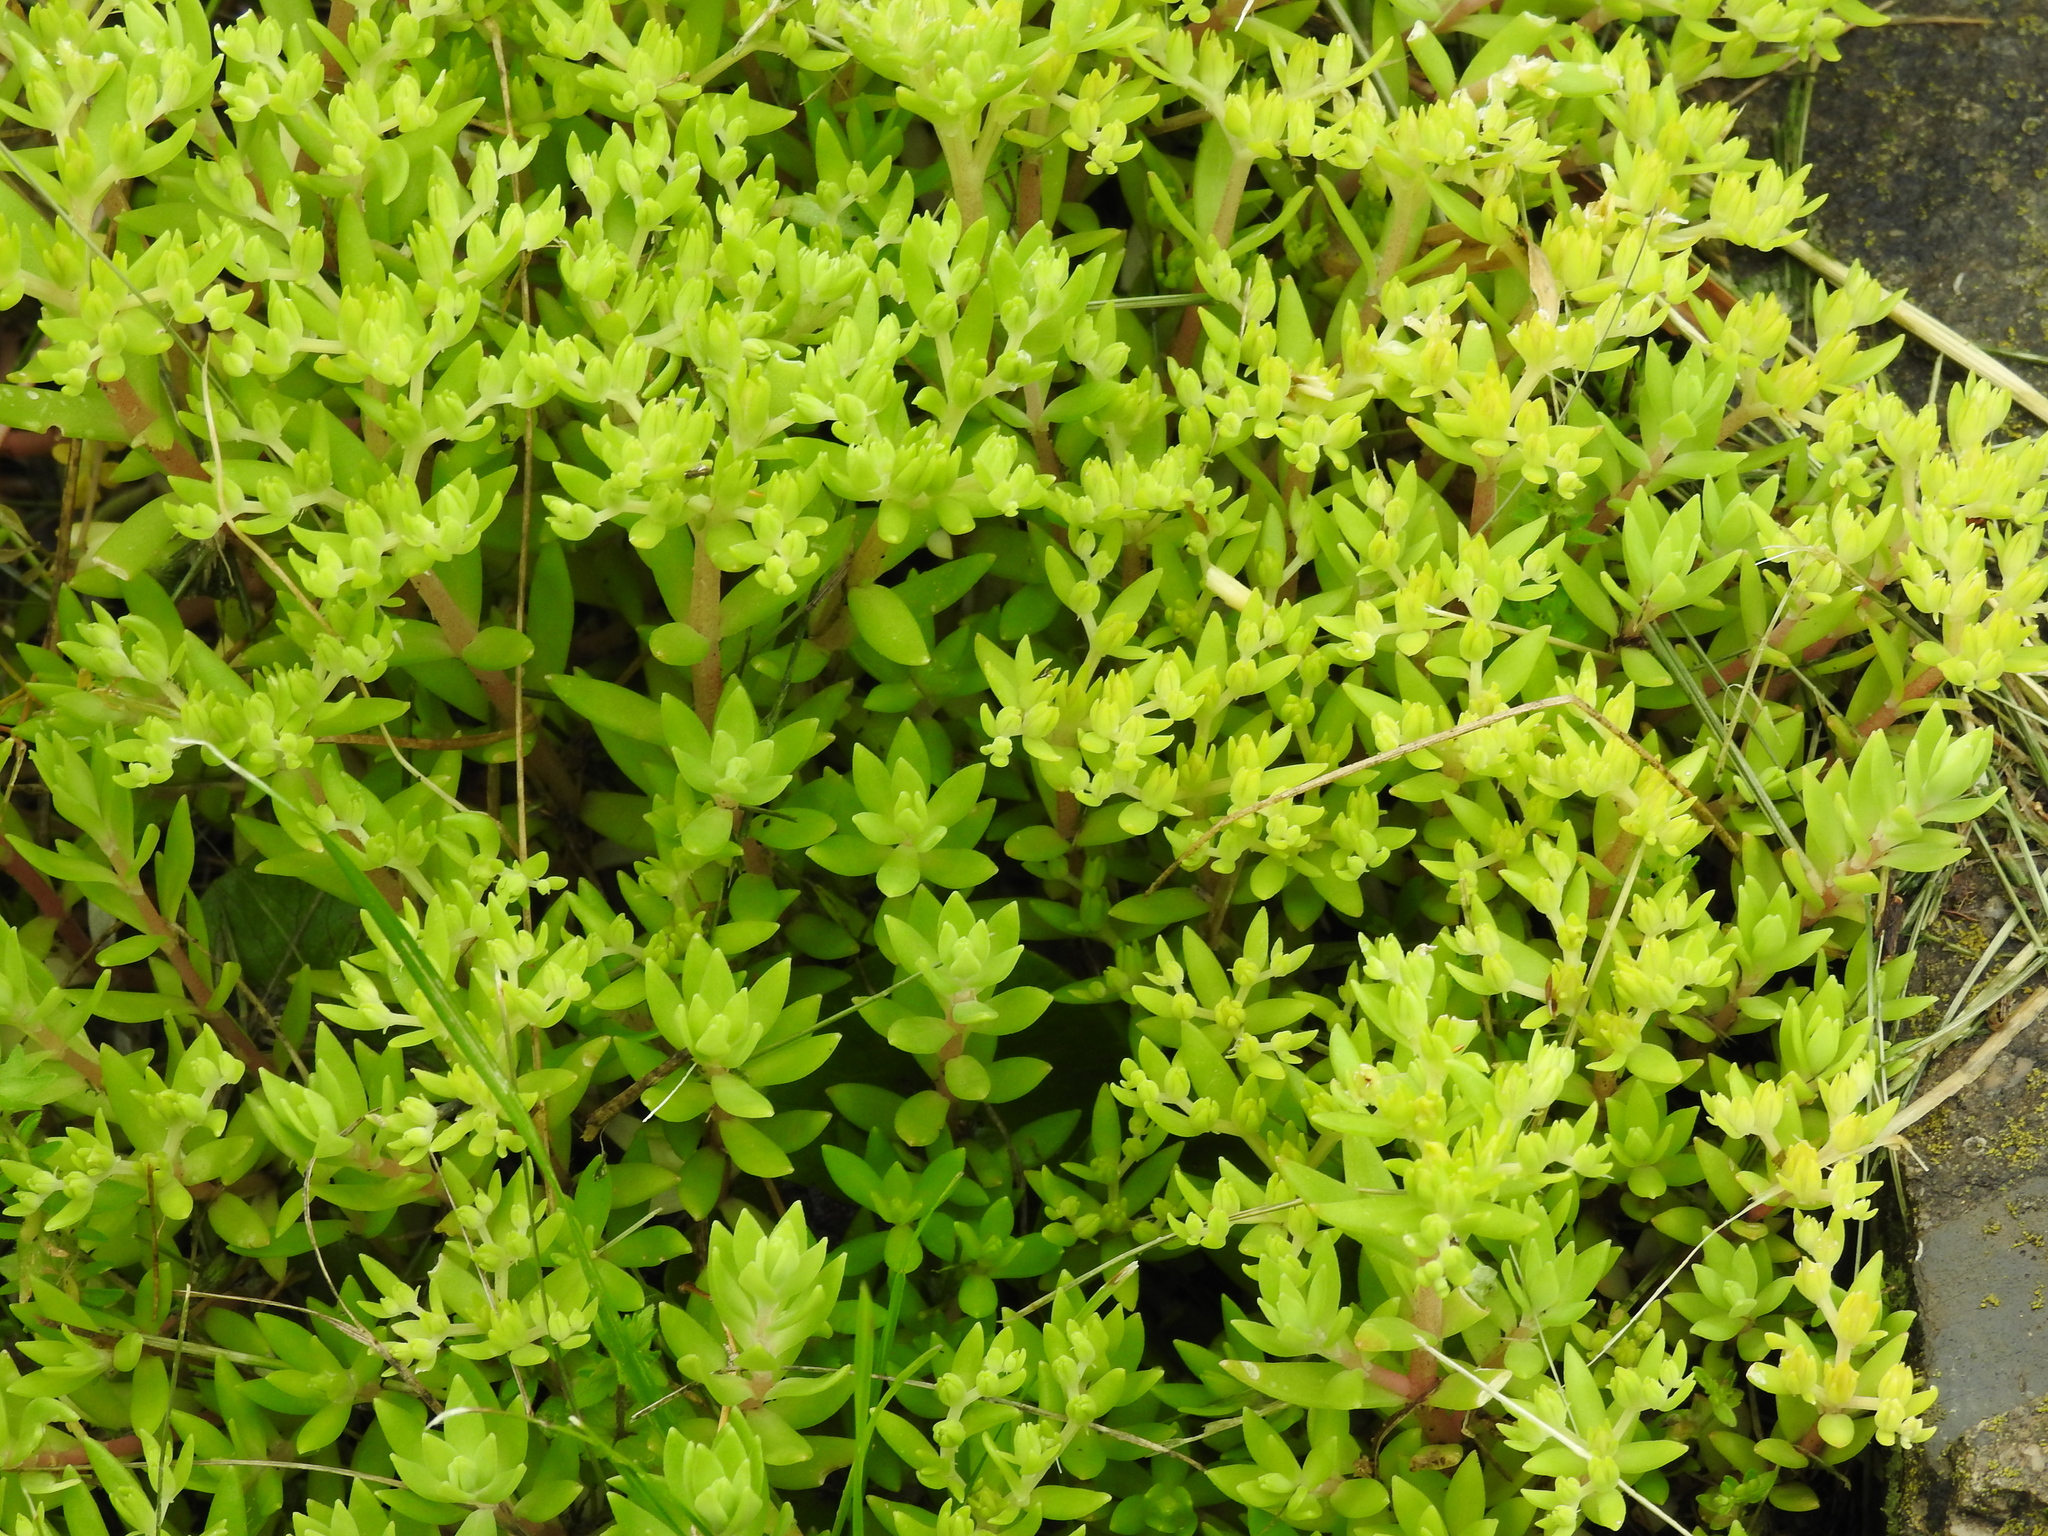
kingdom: Plantae
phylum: Tracheophyta
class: Magnoliopsida
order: Saxifragales
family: Crassulaceae
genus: Sedum
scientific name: Sedum sarmentosum
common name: Stringy stonecrop
